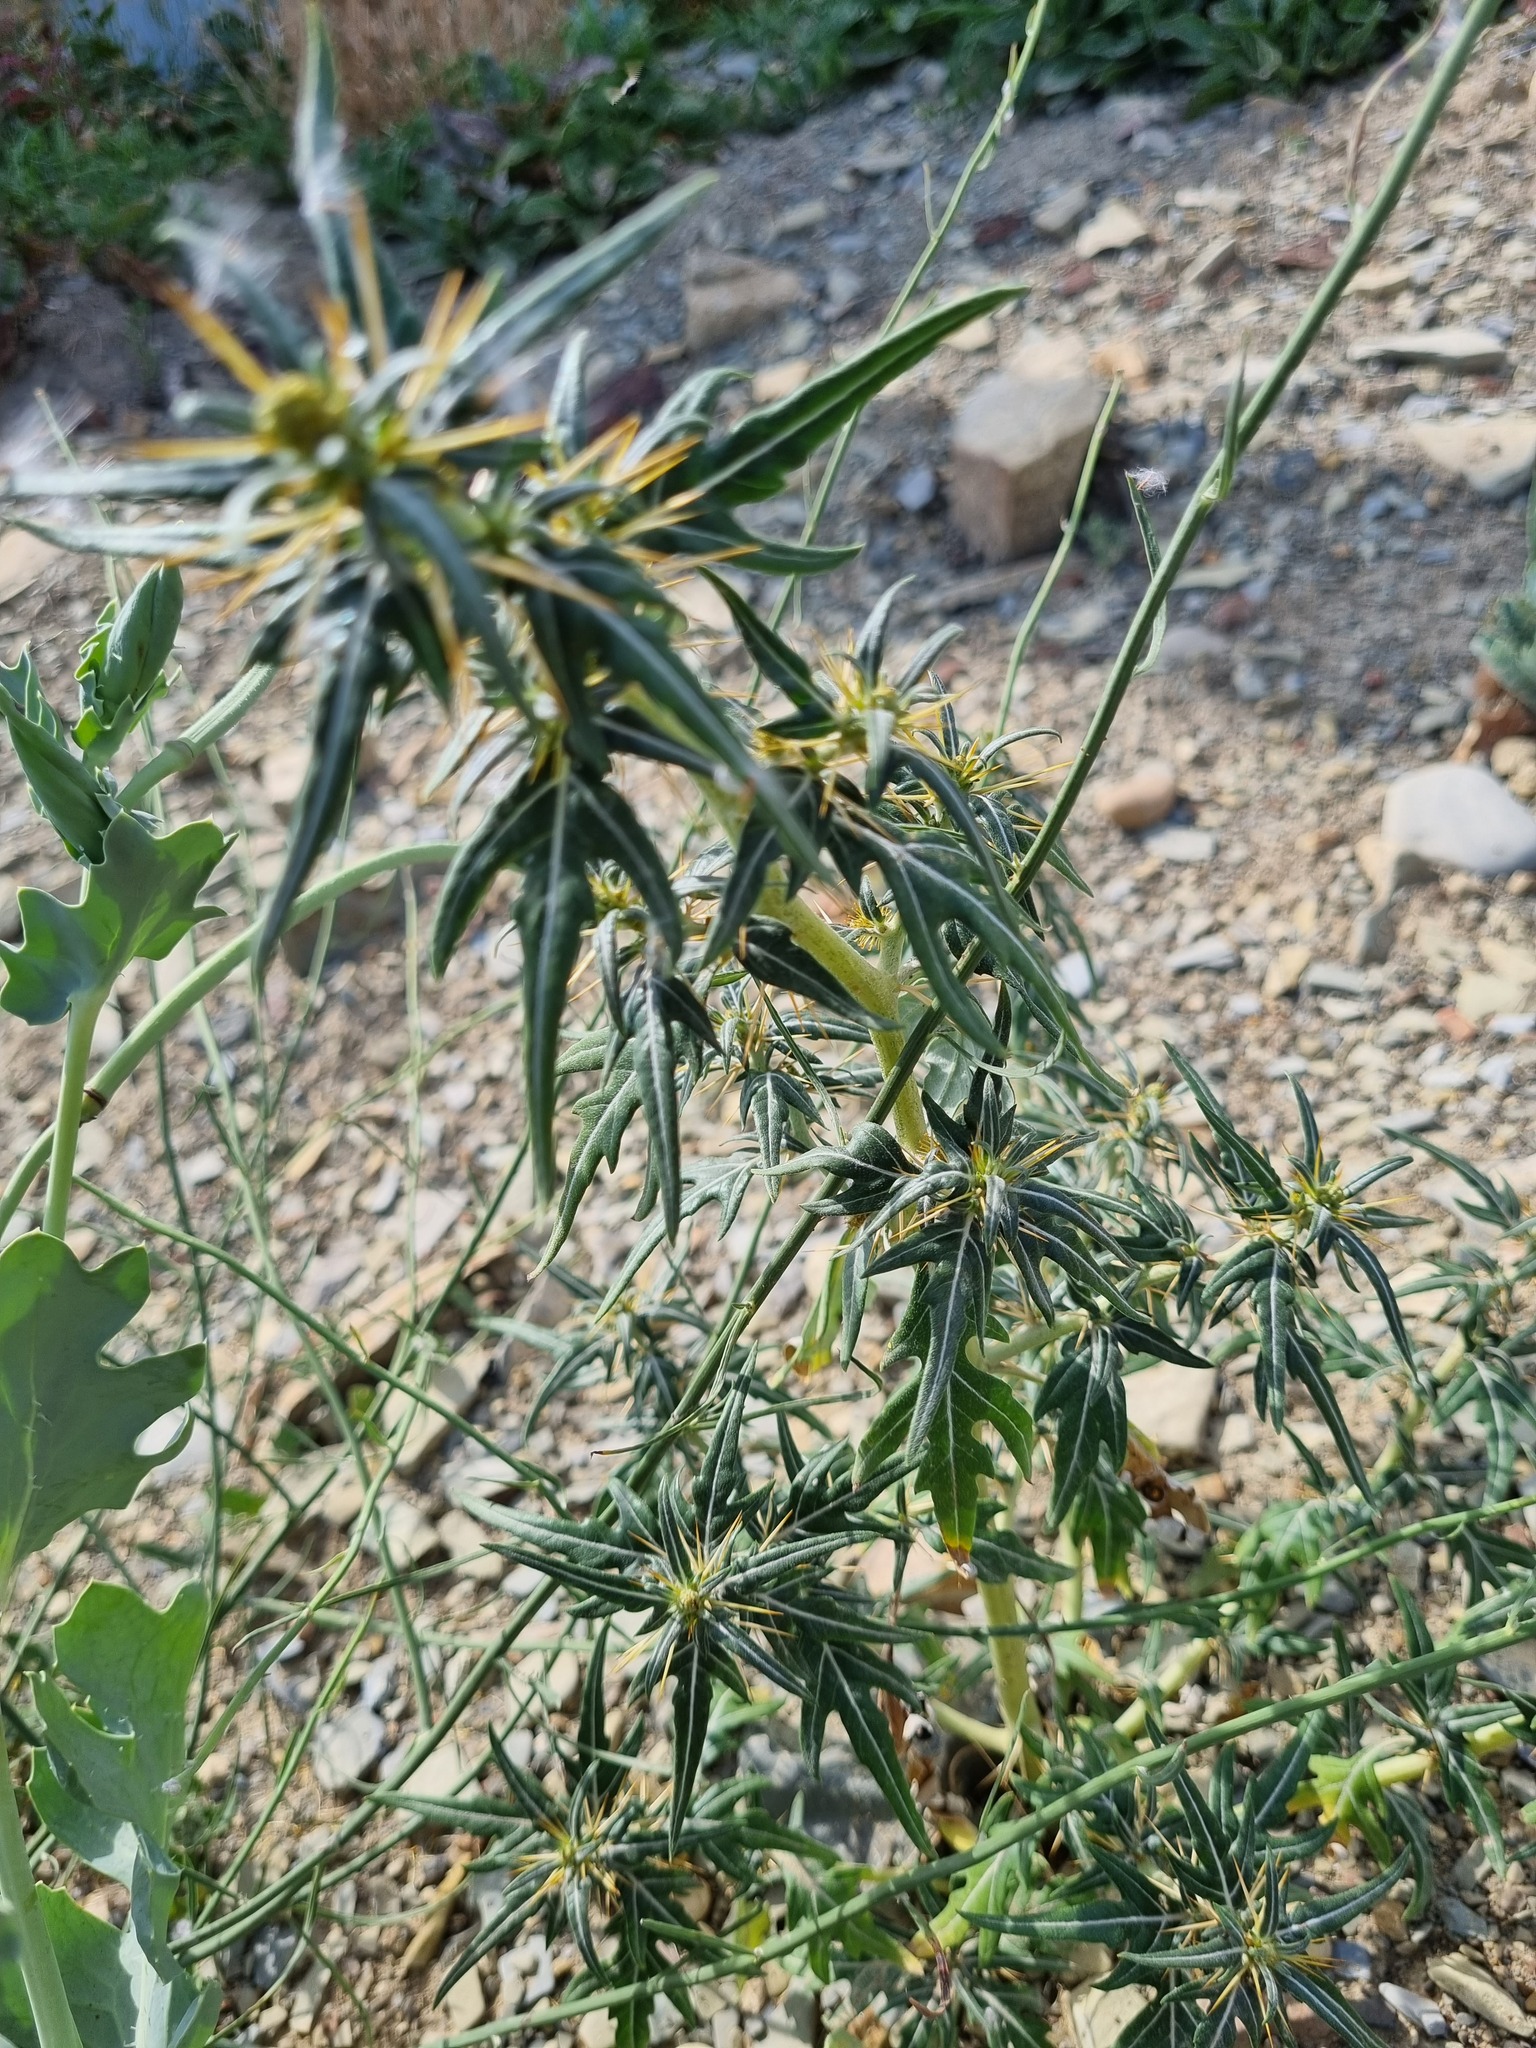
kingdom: Plantae
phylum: Tracheophyta
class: Magnoliopsida
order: Asterales
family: Asteraceae
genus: Xanthium
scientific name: Xanthium spinosum
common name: Spiny cocklebur
